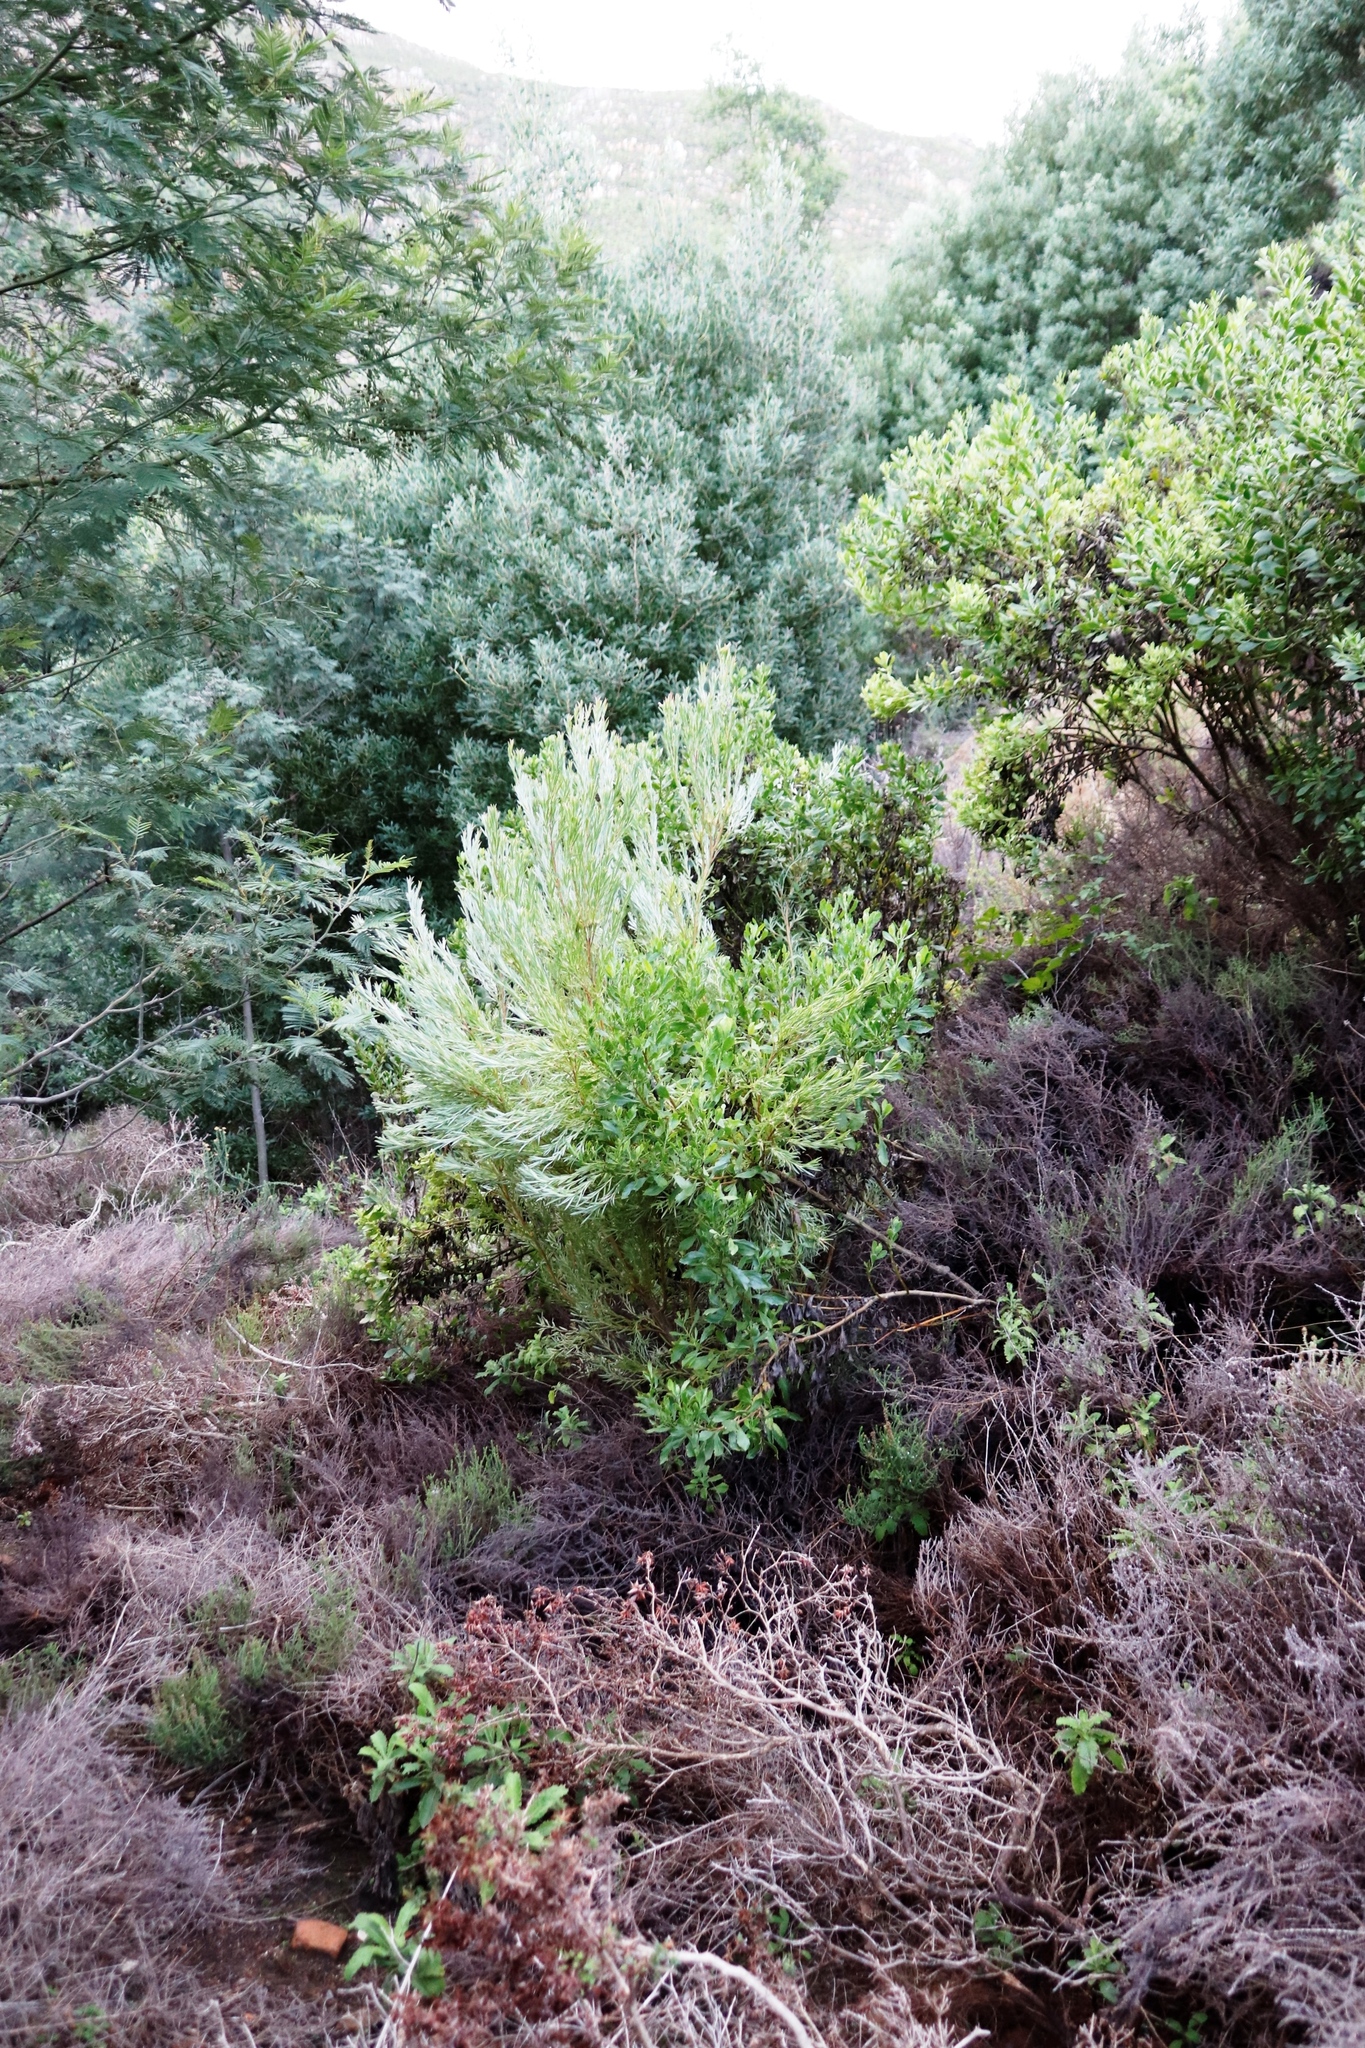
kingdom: Plantae
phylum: Tracheophyta
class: Magnoliopsida
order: Proteales
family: Proteaceae
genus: Leucadendron
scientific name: Leucadendron xanthoconus
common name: Sickle-leaf conebush
